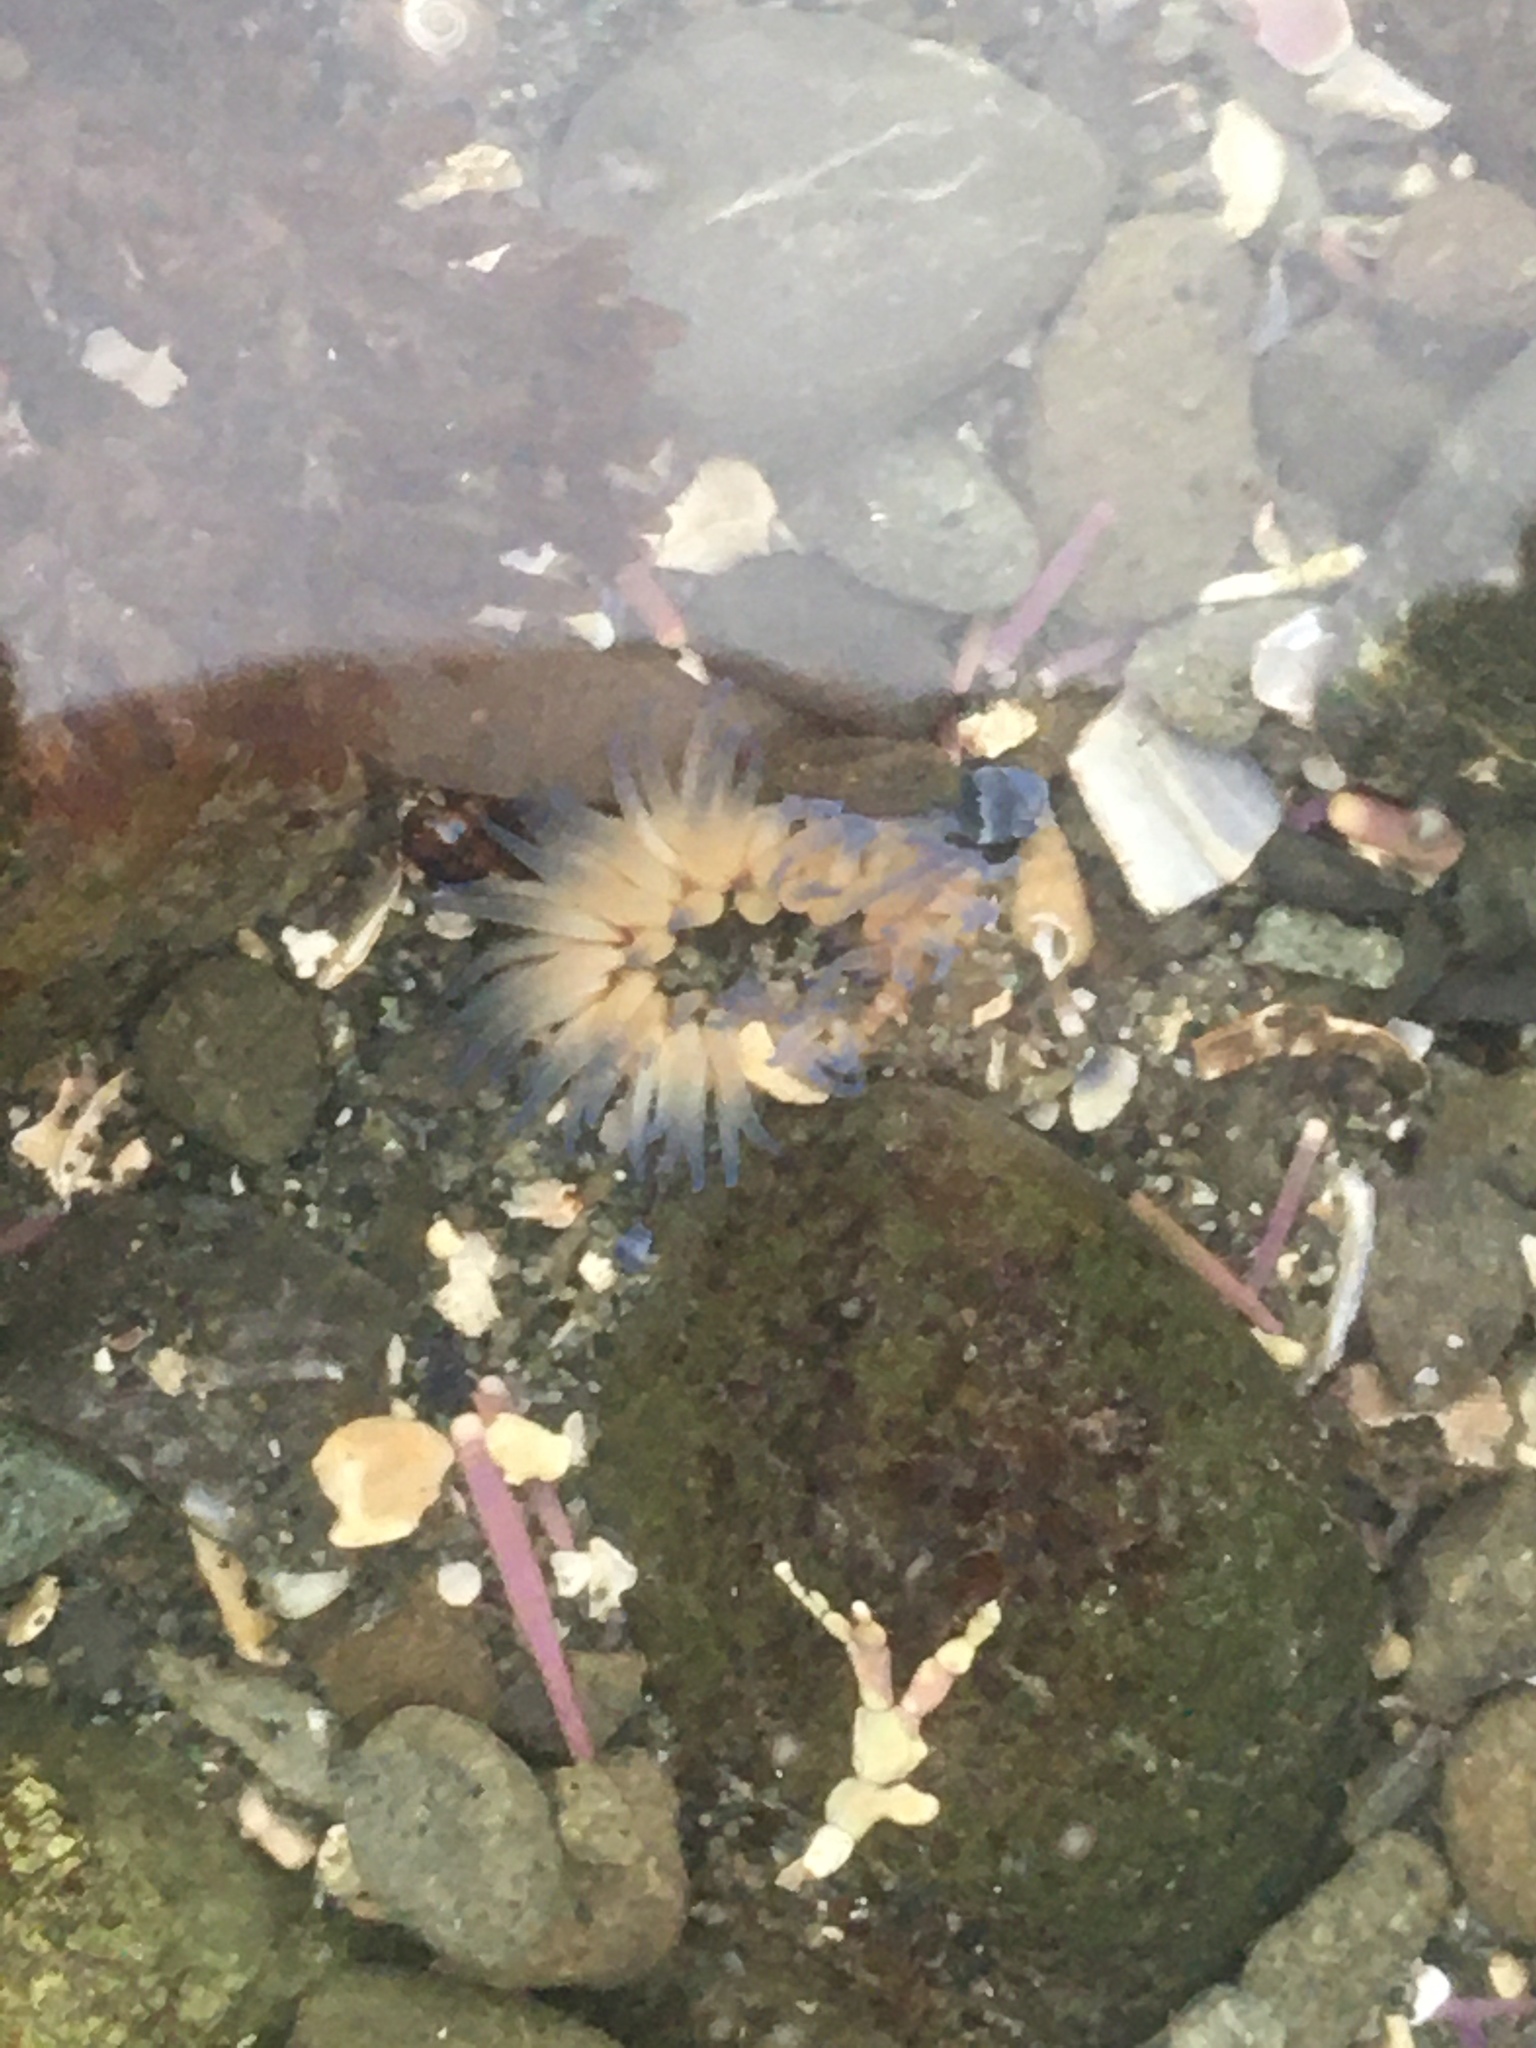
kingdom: Animalia
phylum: Cnidaria
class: Anthozoa
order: Actiniaria
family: Actiniidae
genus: Anthopleura
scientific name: Anthopleura artemisia
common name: Buried sea anemone
